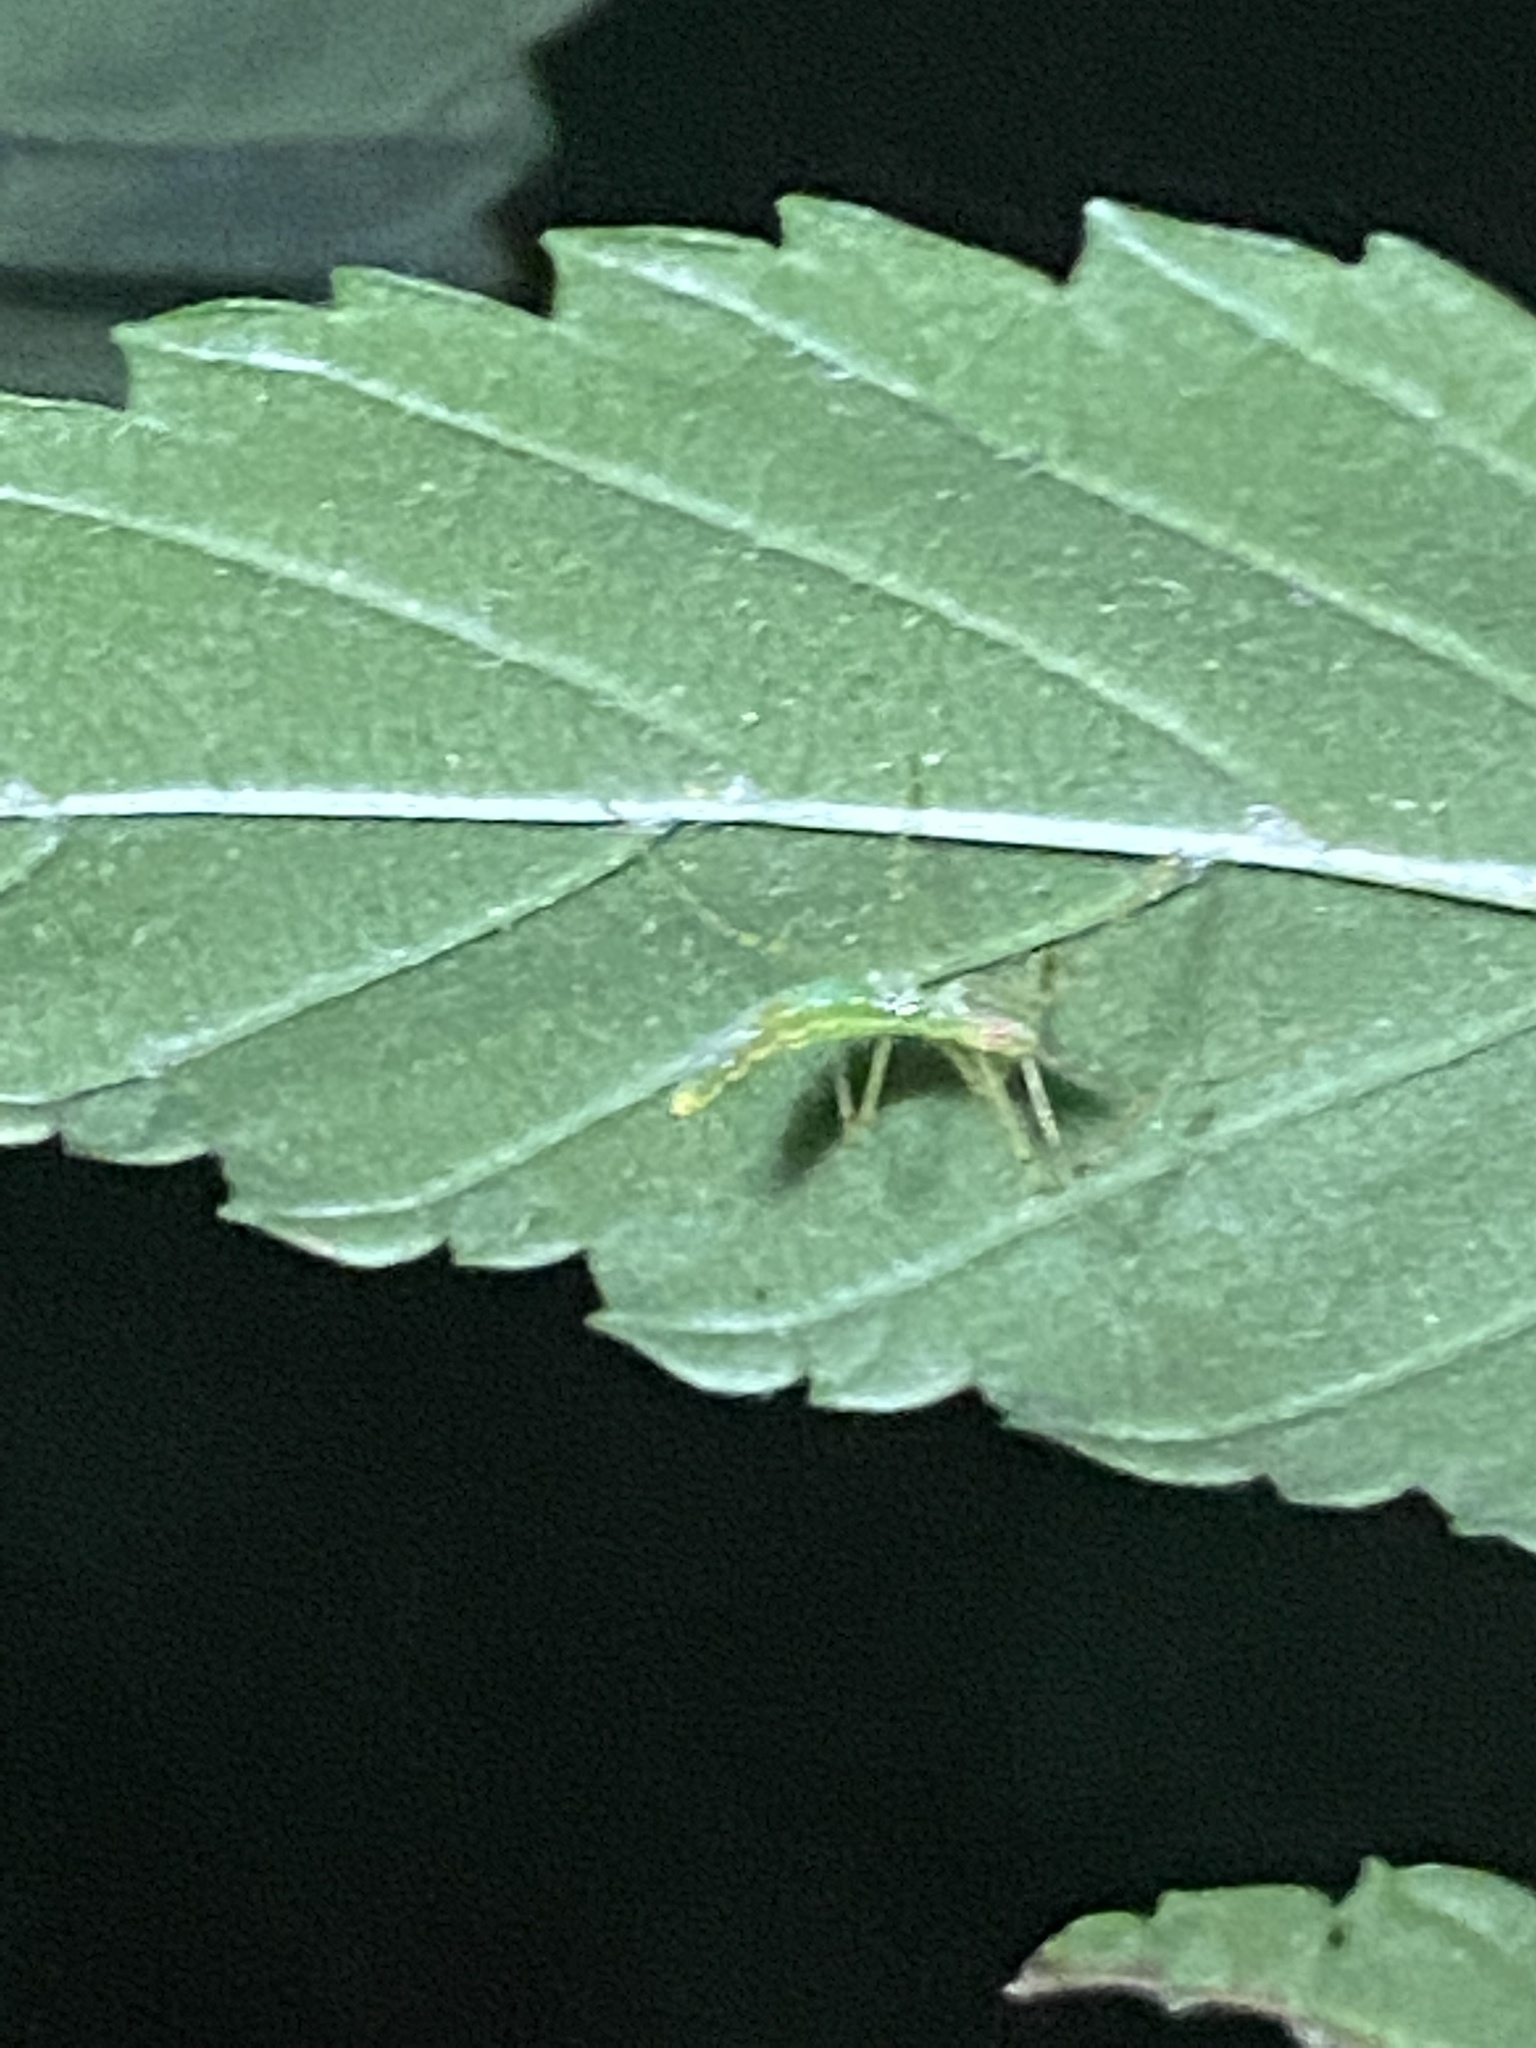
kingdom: Animalia
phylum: Arthropoda
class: Insecta
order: Hemiptera
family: Reduviidae
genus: Zelus
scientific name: Zelus luridus
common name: Pale green assassin bug
